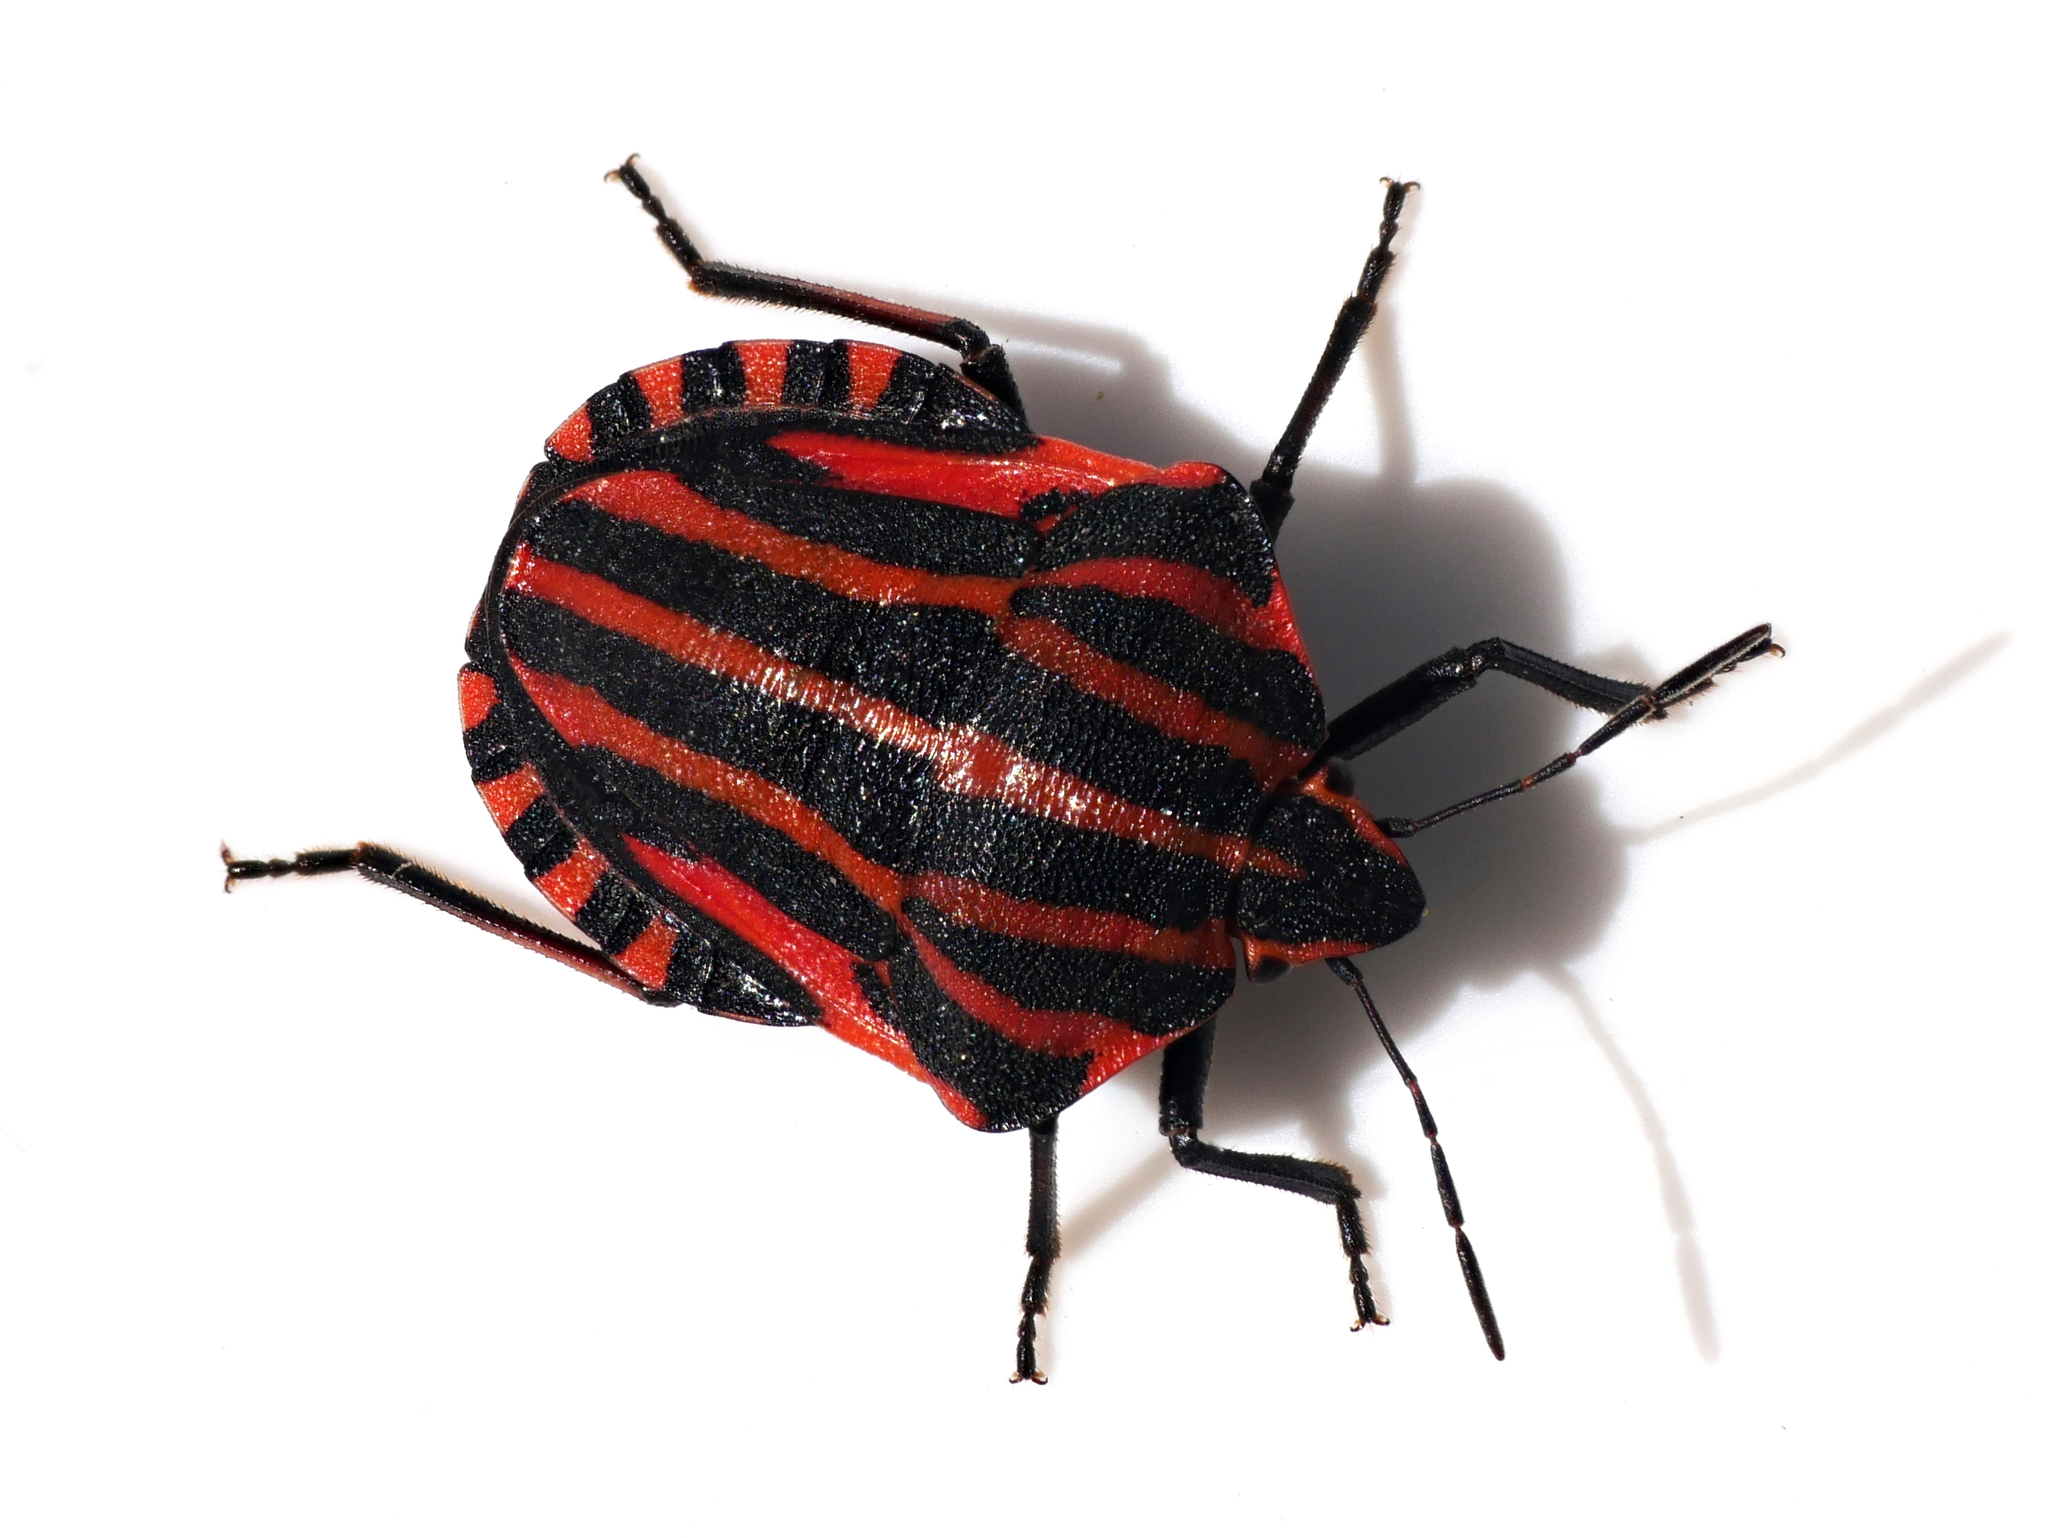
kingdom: Animalia
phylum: Arthropoda
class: Insecta
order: Hemiptera
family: Pentatomidae
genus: Graphosoma
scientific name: Graphosoma italicum
